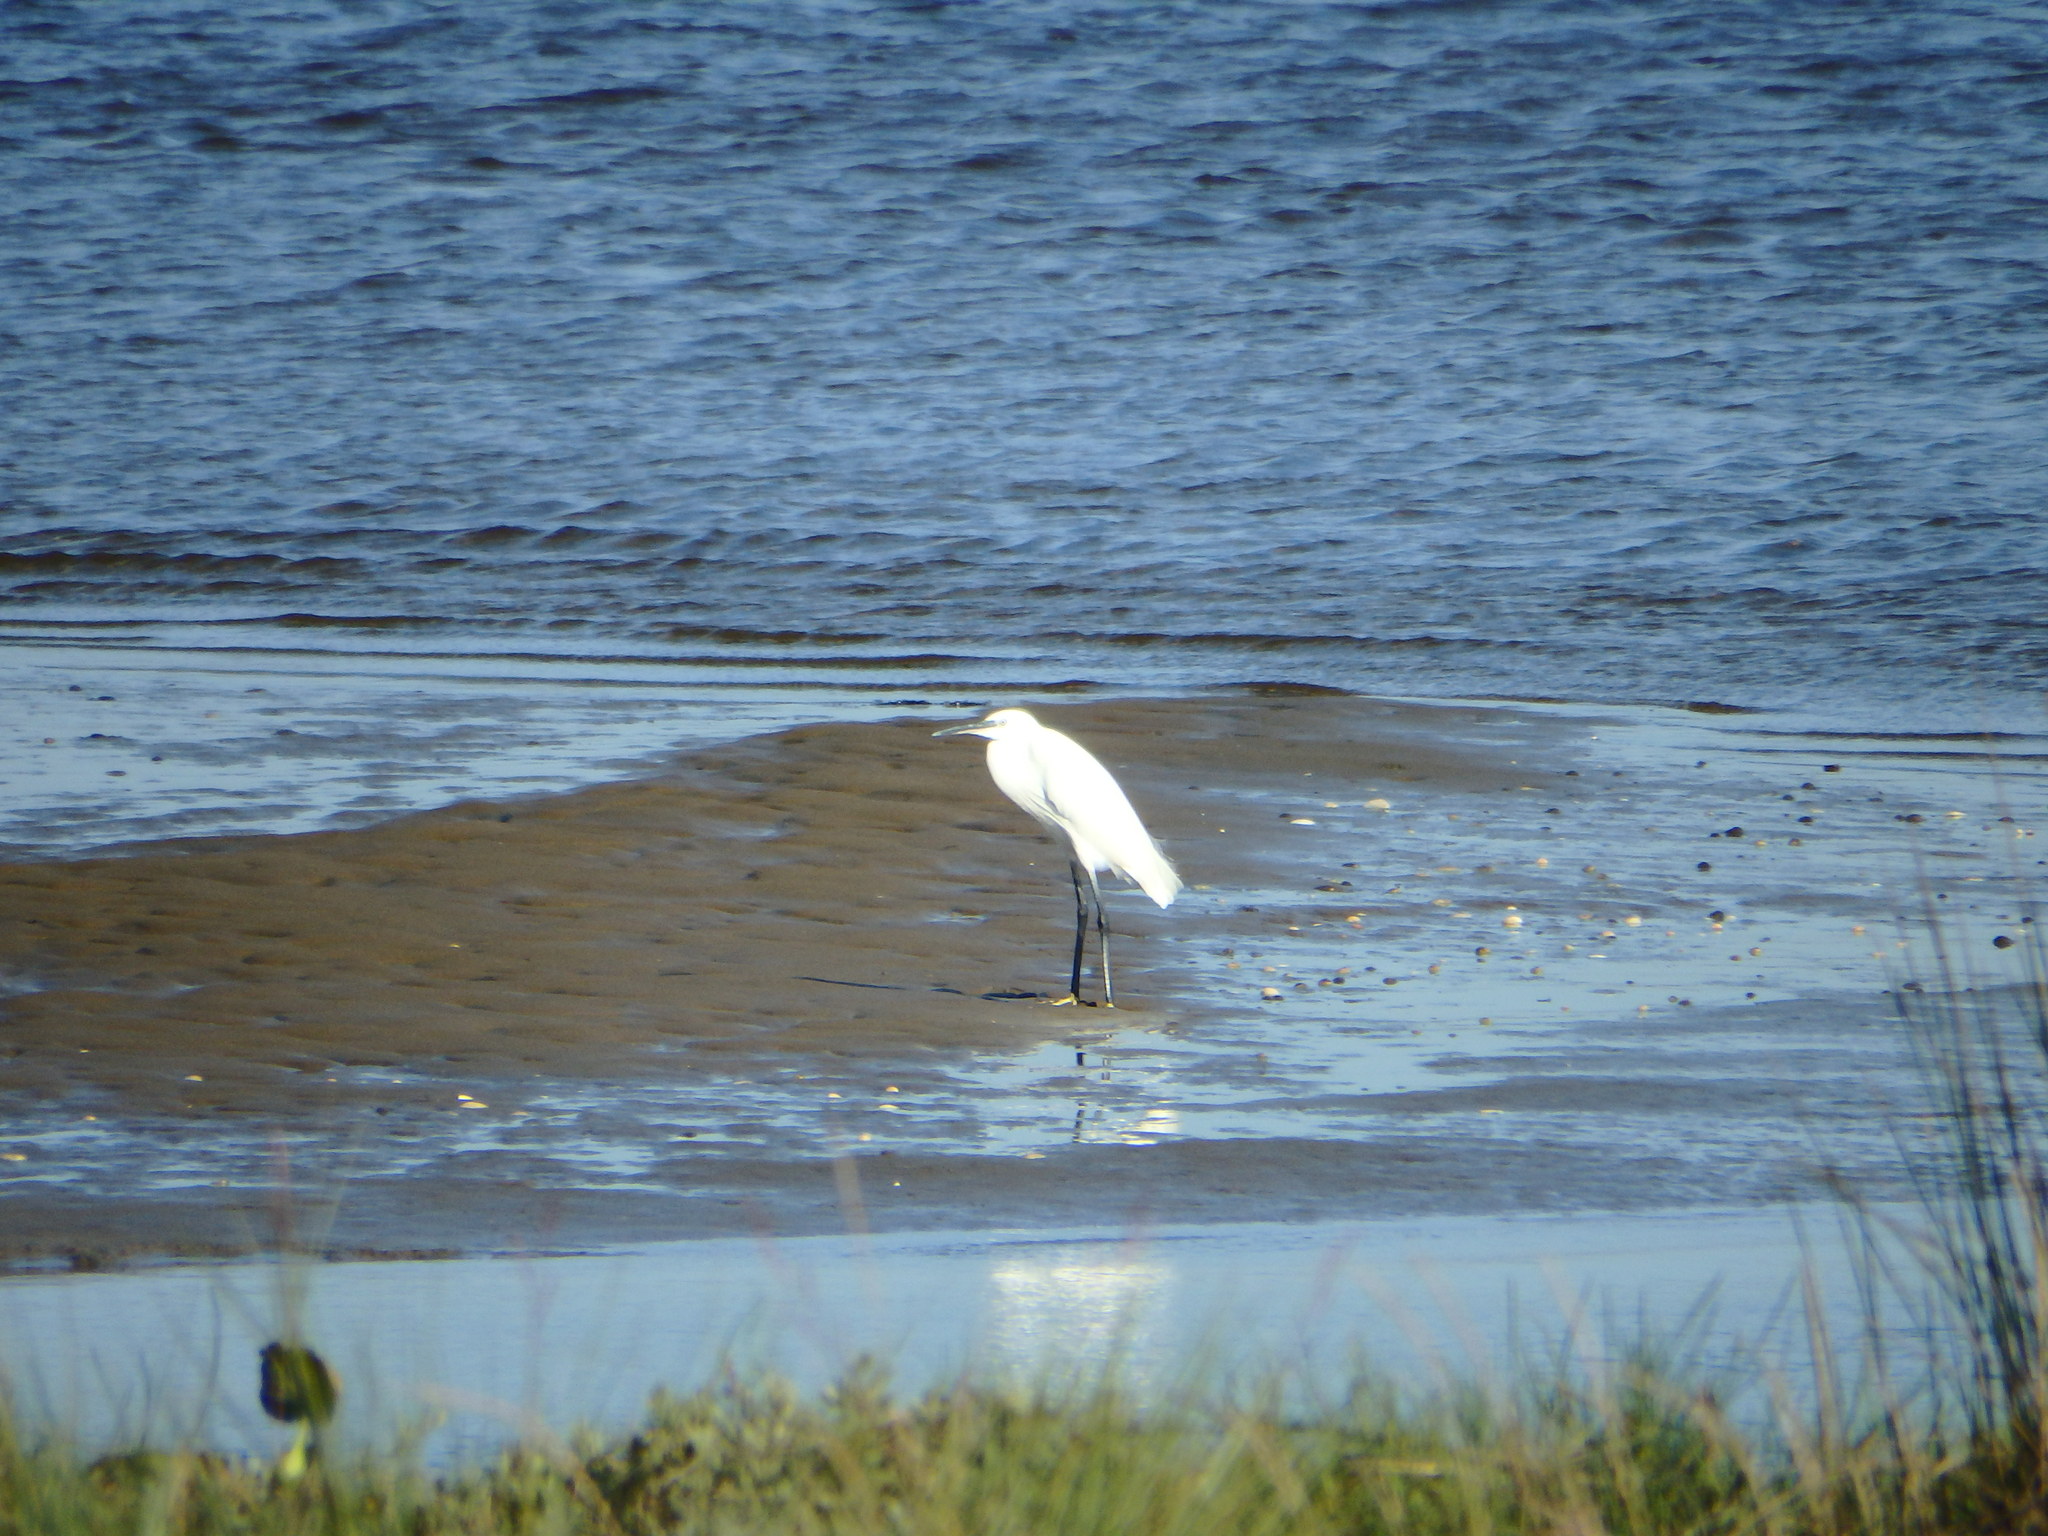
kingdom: Animalia
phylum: Chordata
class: Aves
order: Pelecaniformes
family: Ardeidae
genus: Egretta
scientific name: Egretta garzetta
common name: Little egret
